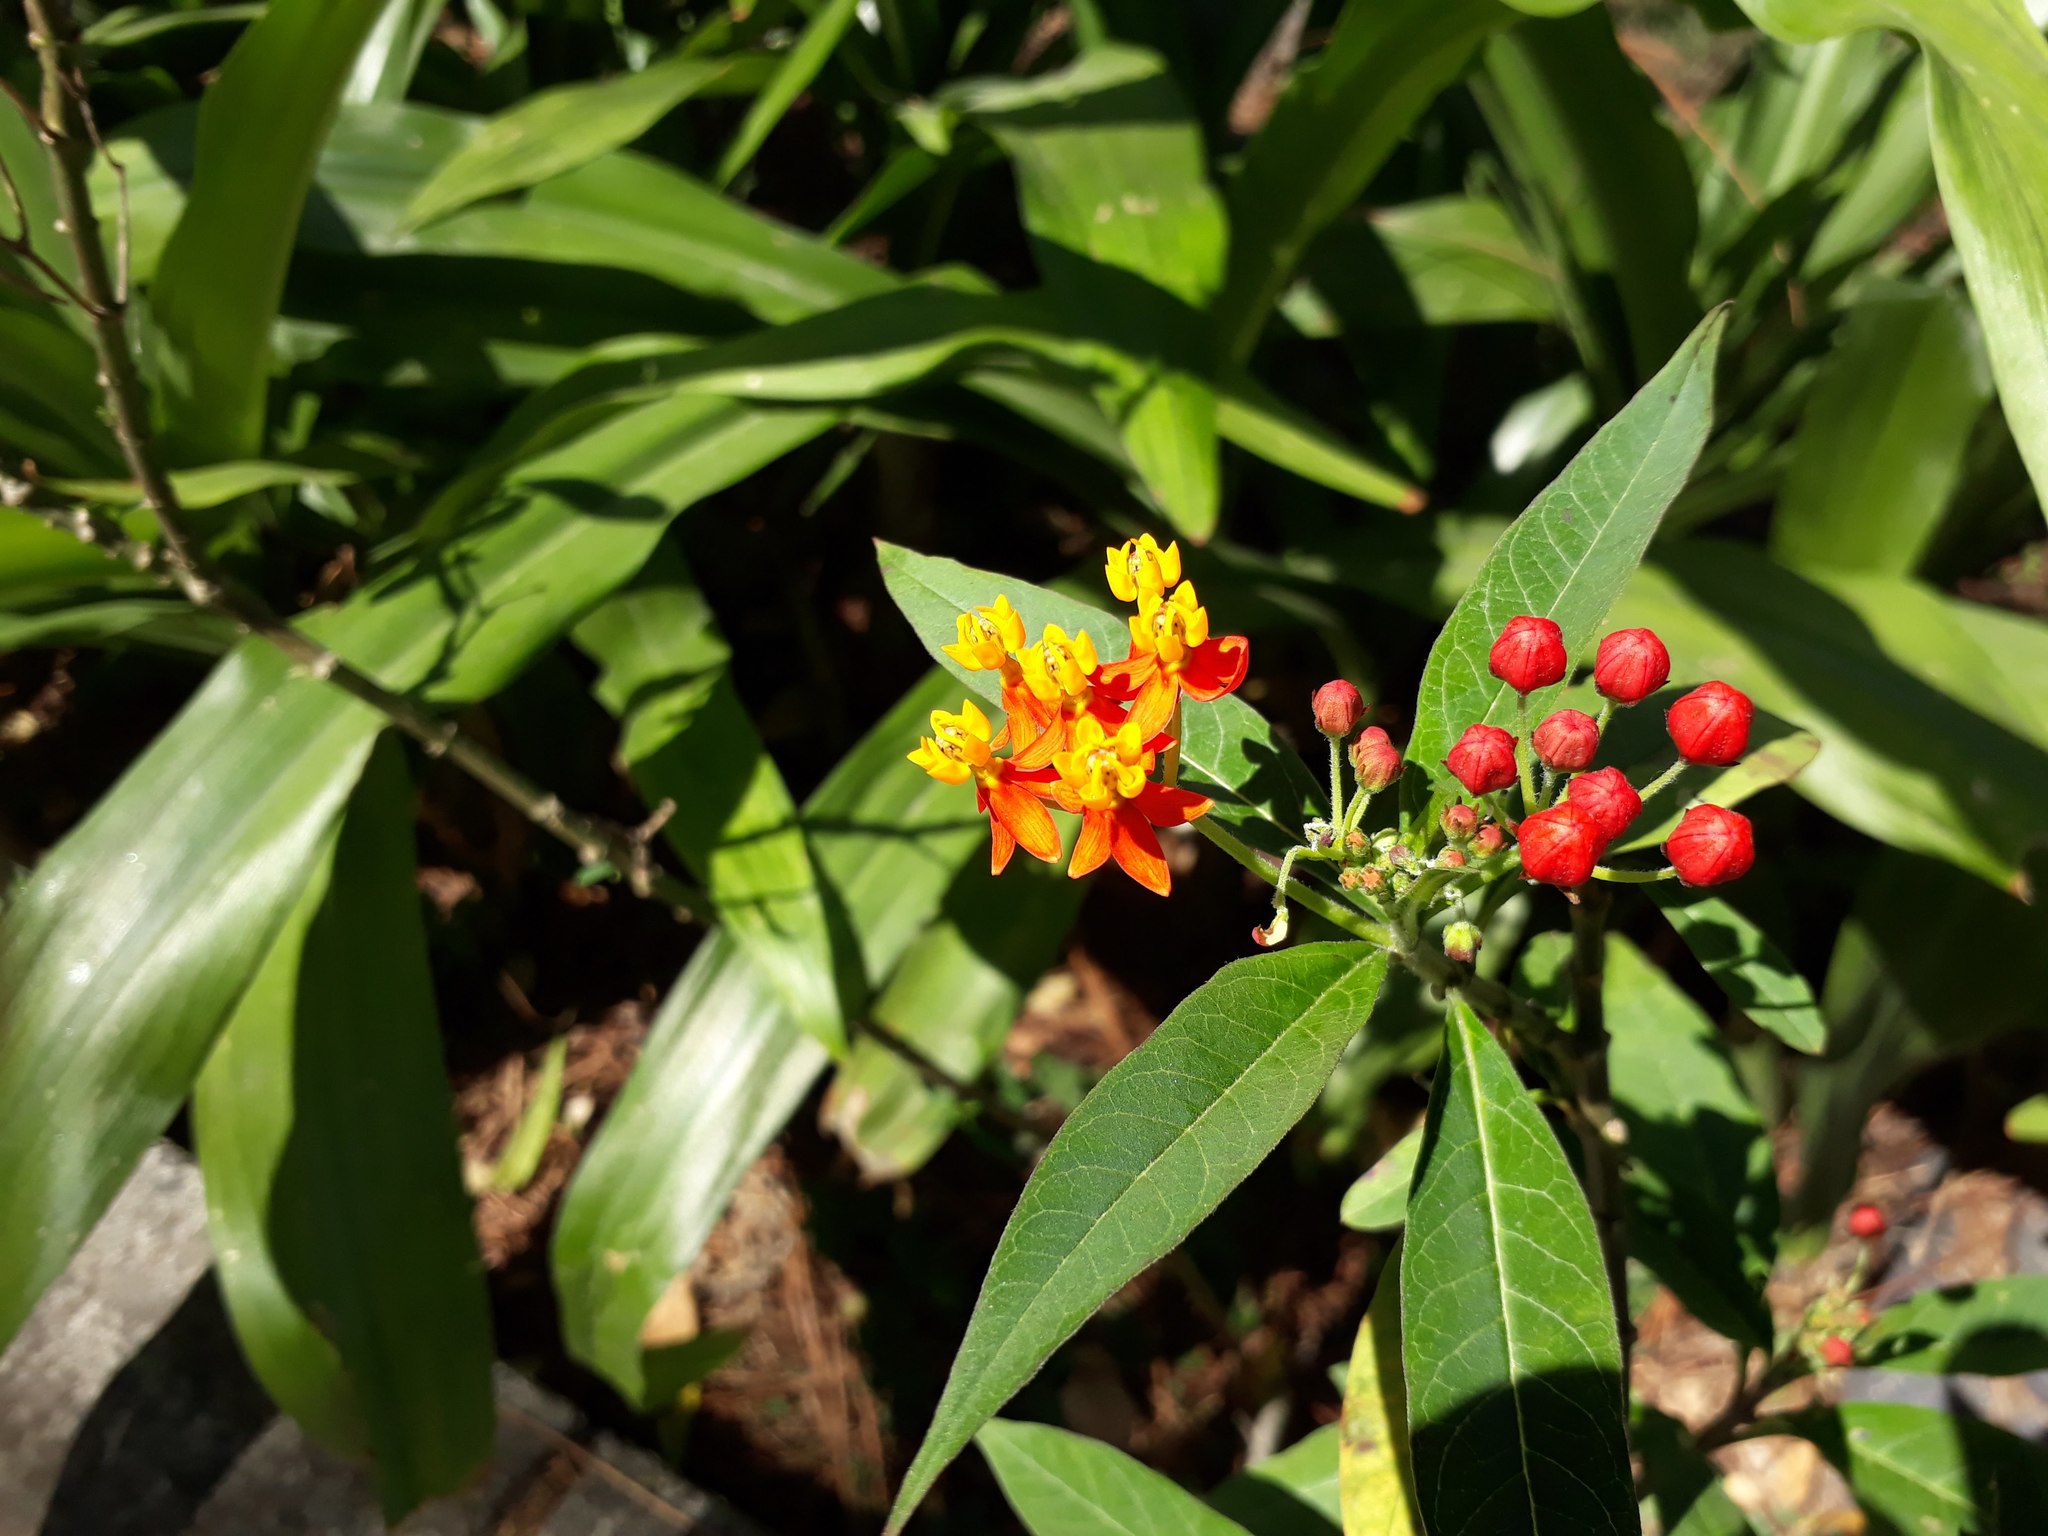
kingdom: Plantae
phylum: Tracheophyta
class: Magnoliopsida
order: Gentianales
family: Apocynaceae
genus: Asclepias
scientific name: Asclepias curassavica
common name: Bloodflower
